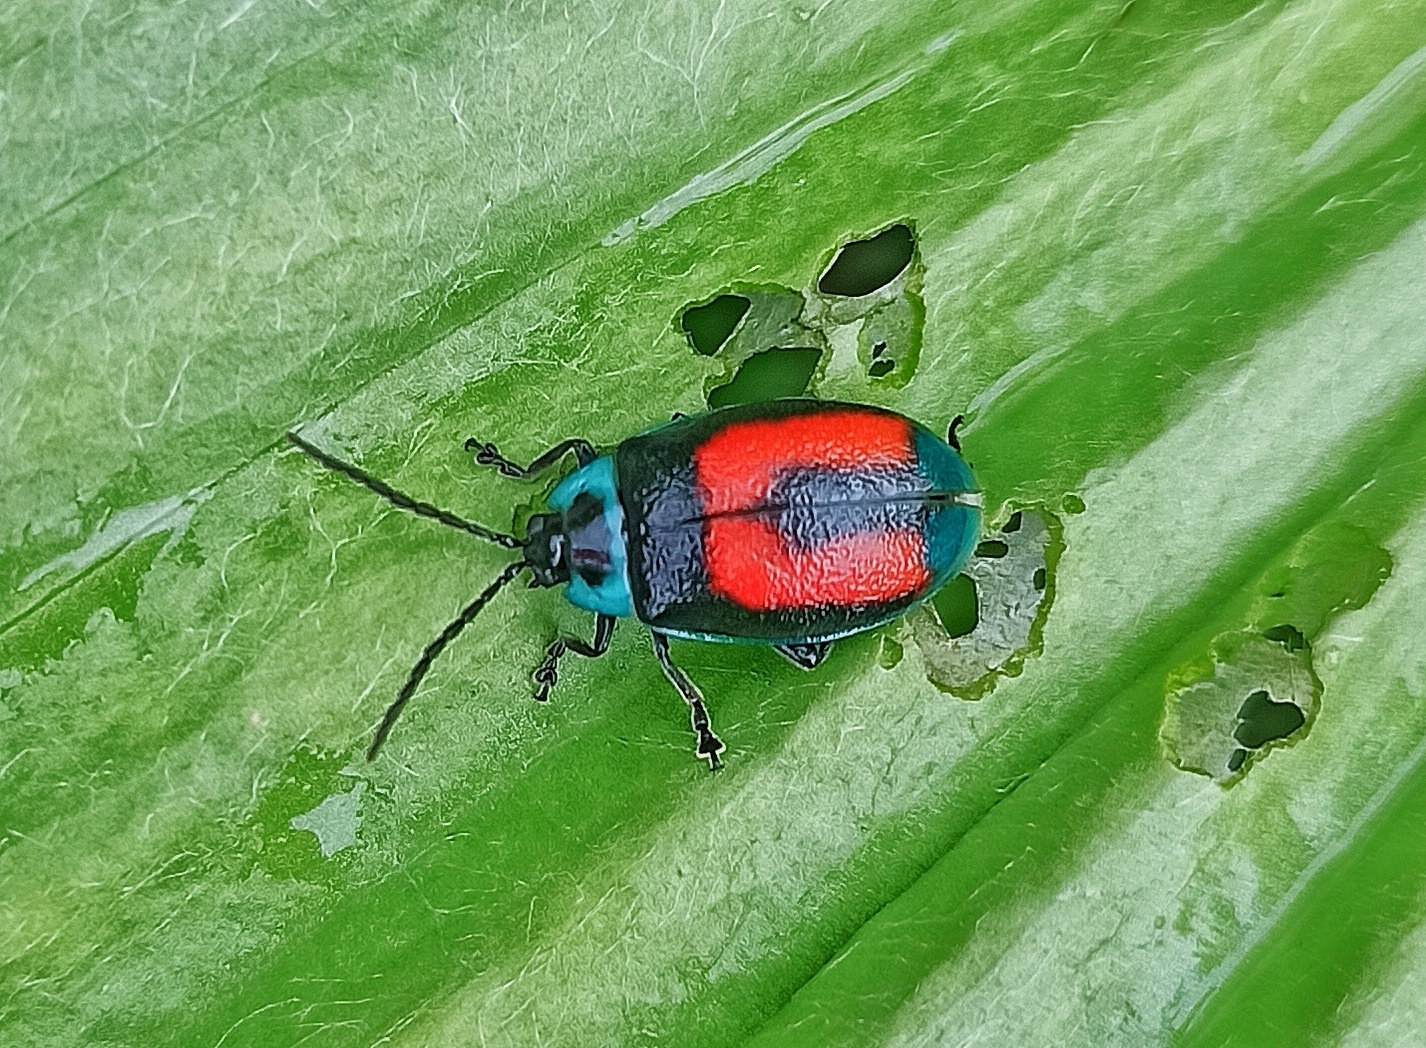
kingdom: Animalia
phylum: Arthropoda
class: Insecta
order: Coleoptera
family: Chrysomelidae
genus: Aspicela
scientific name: Aspicela
